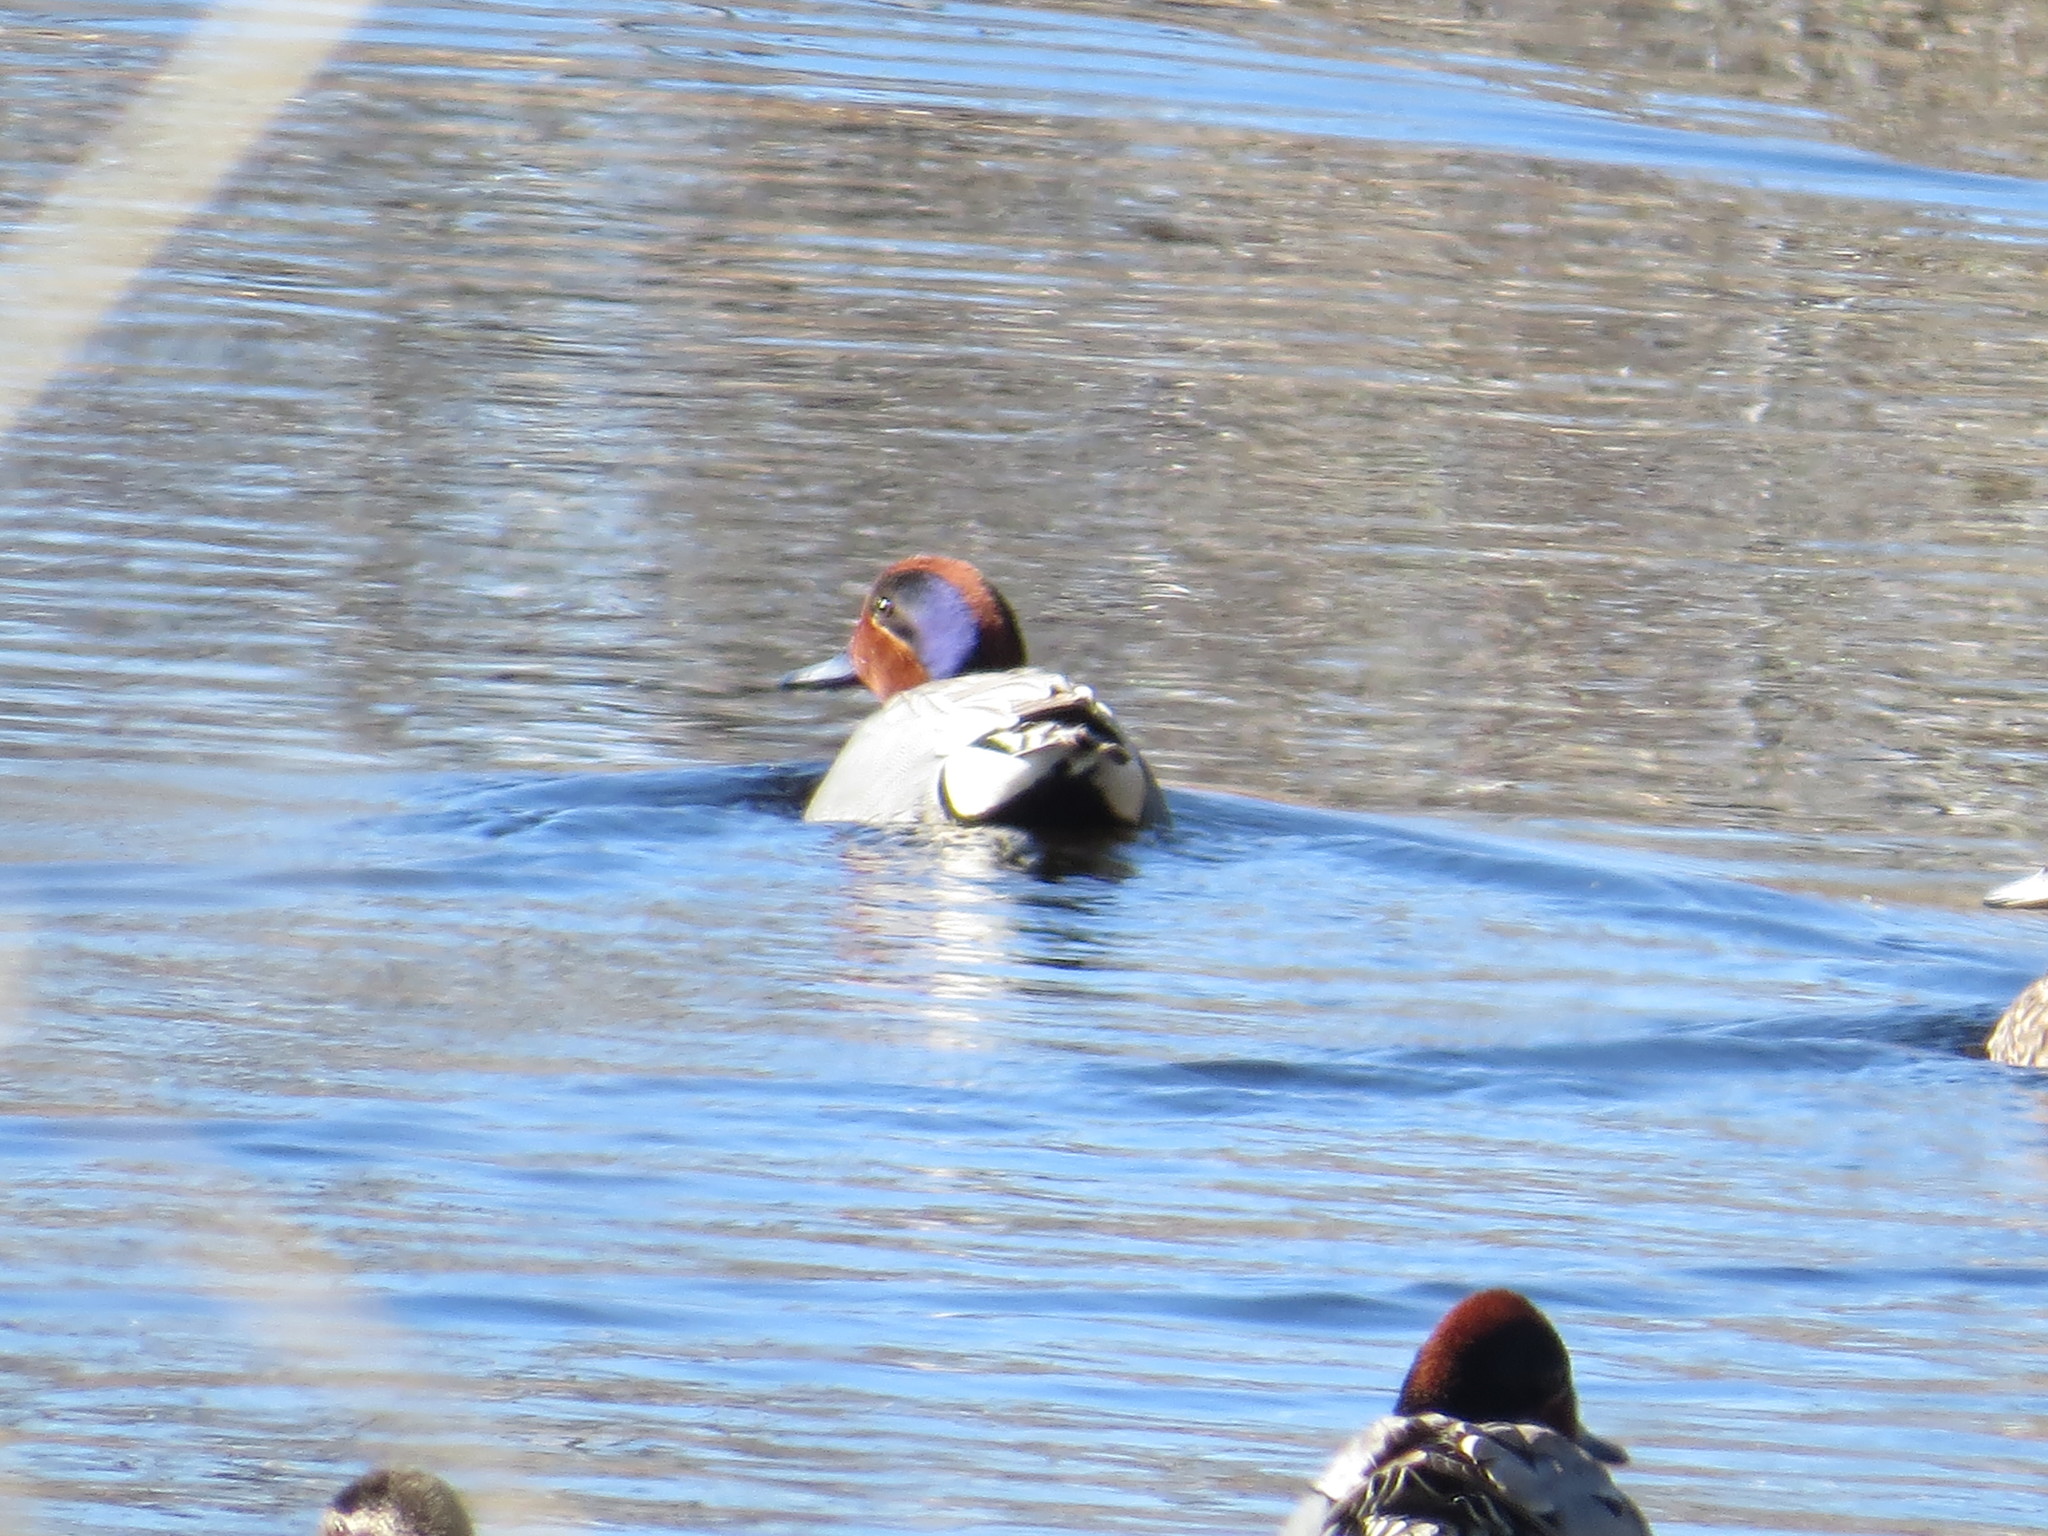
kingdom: Animalia
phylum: Chordata
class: Aves
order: Anseriformes
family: Anatidae
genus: Anas
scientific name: Anas crecca
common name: Eurasian teal
